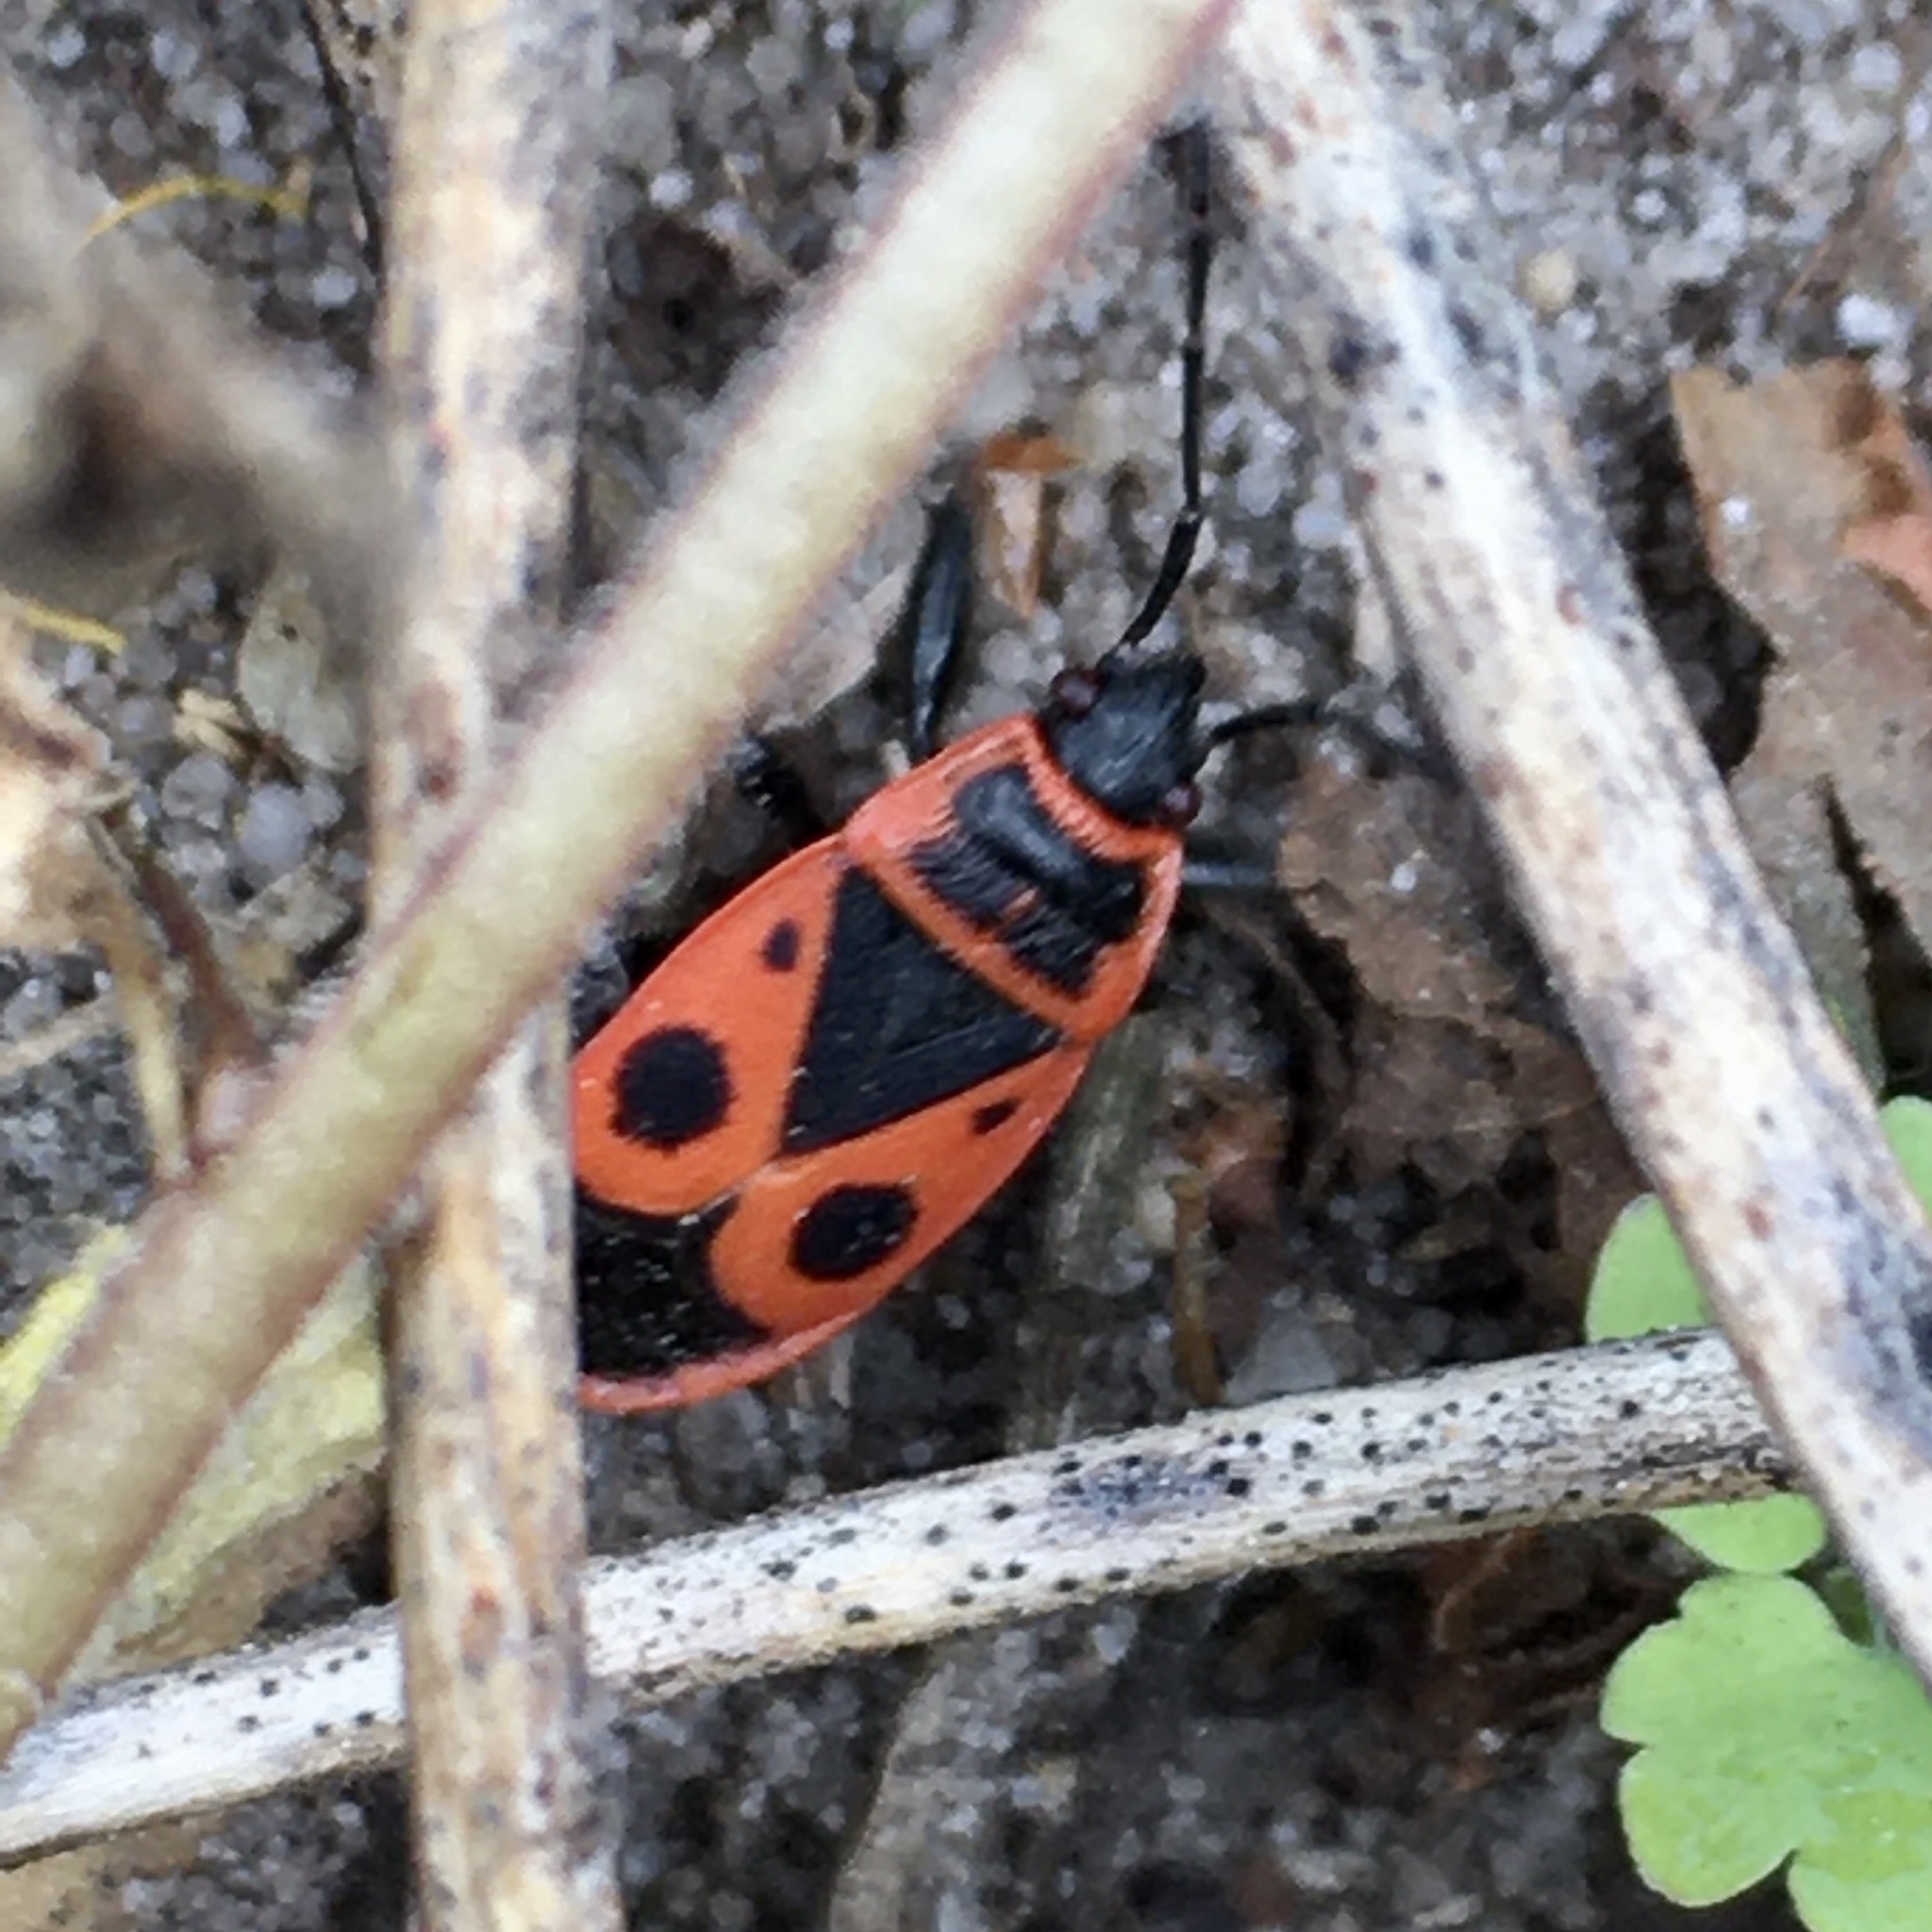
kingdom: Animalia
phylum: Arthropoda
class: Insecta
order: Hemiptera
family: Pyrrhocoridae
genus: Pyrrhocoris
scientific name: Pyrrhocoris apterus
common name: Firebug
